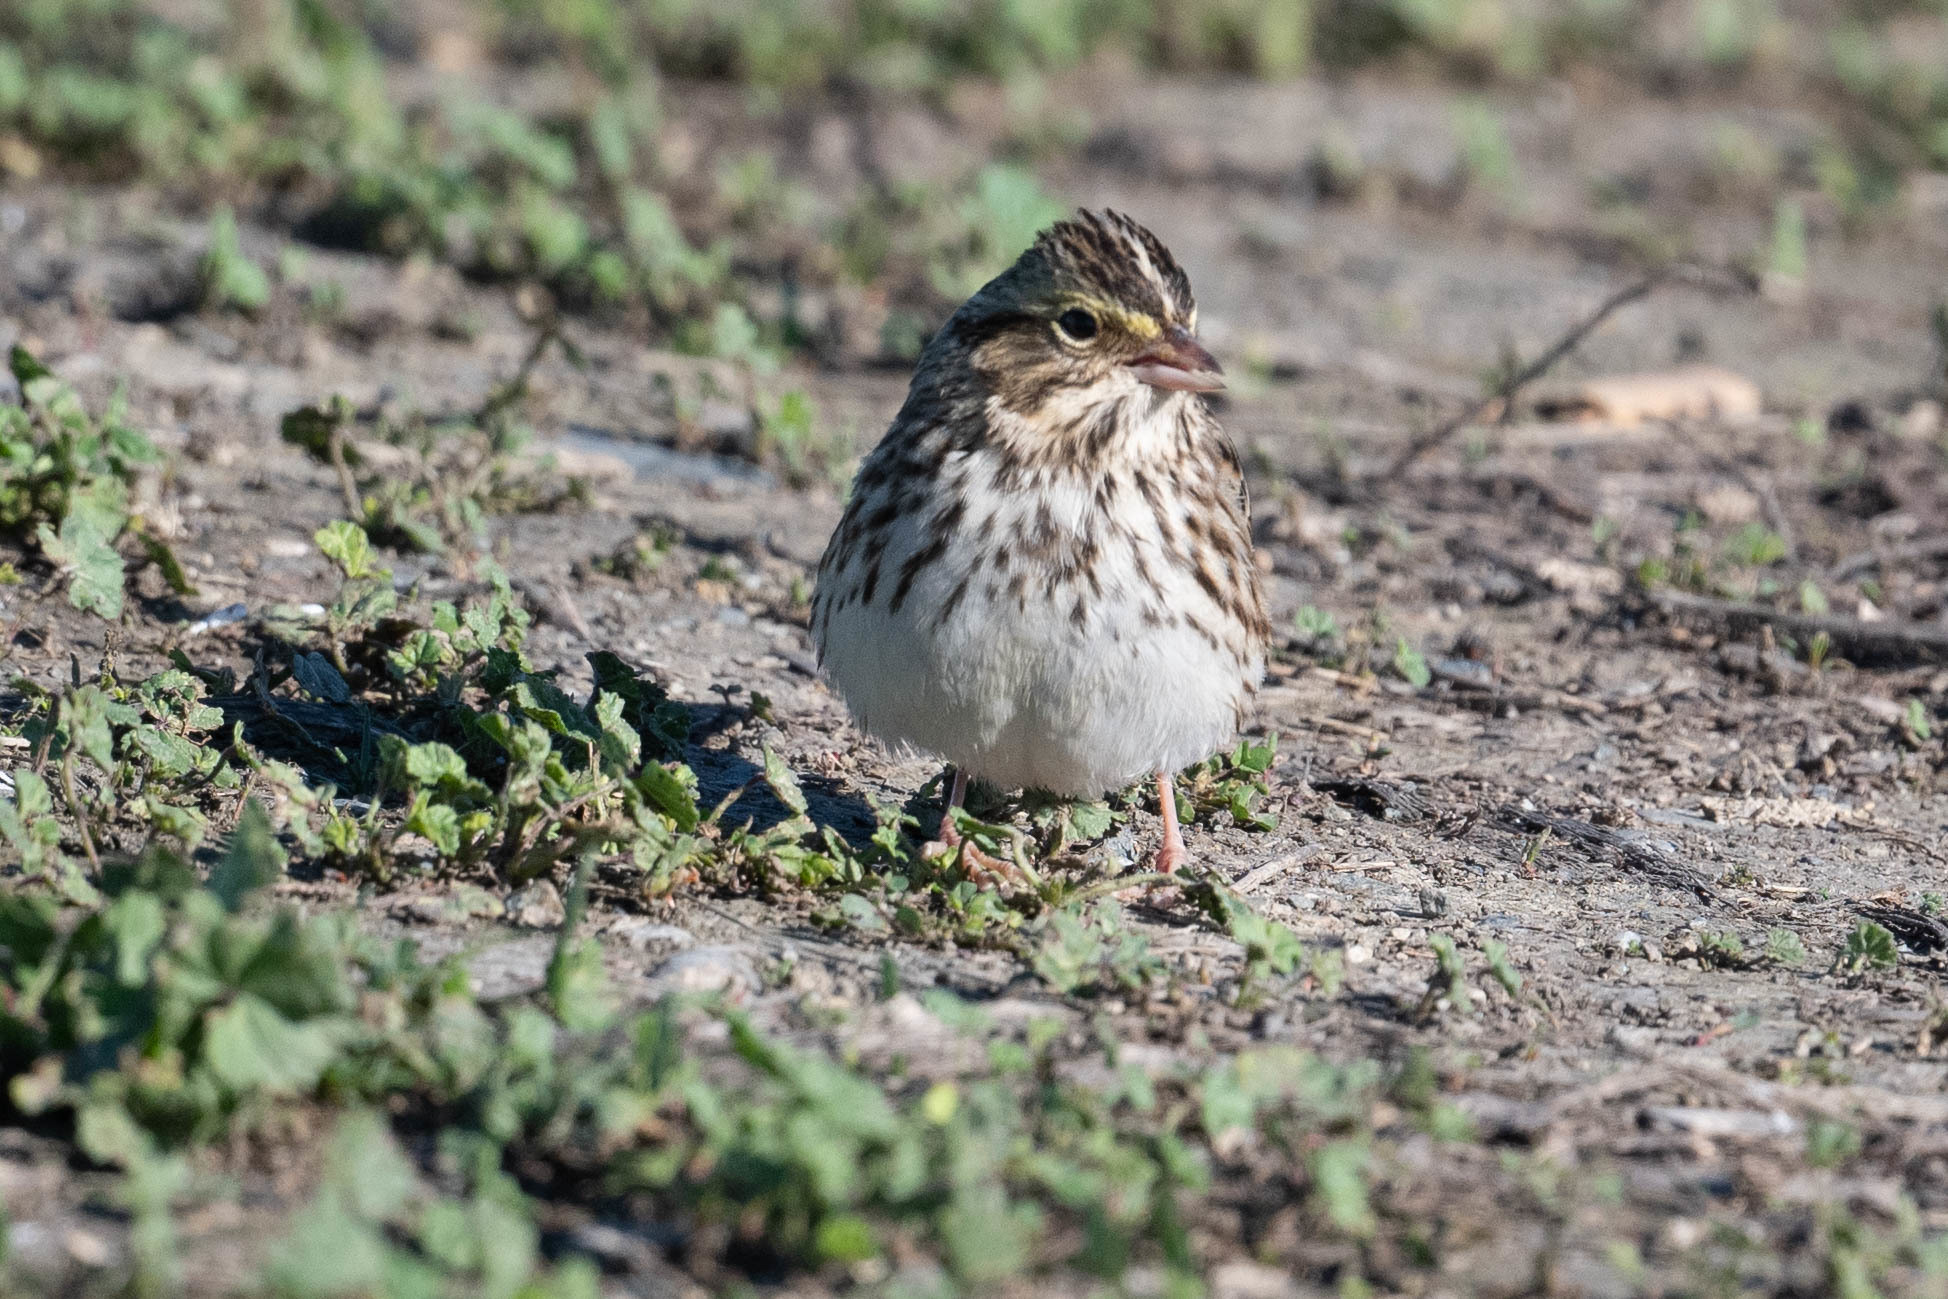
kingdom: Animalia
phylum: Chordata
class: Aves
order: Passeriformes
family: Passerellidae
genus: Passerculus
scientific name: Passerculus sandwichensis
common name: Savannah sparrow
